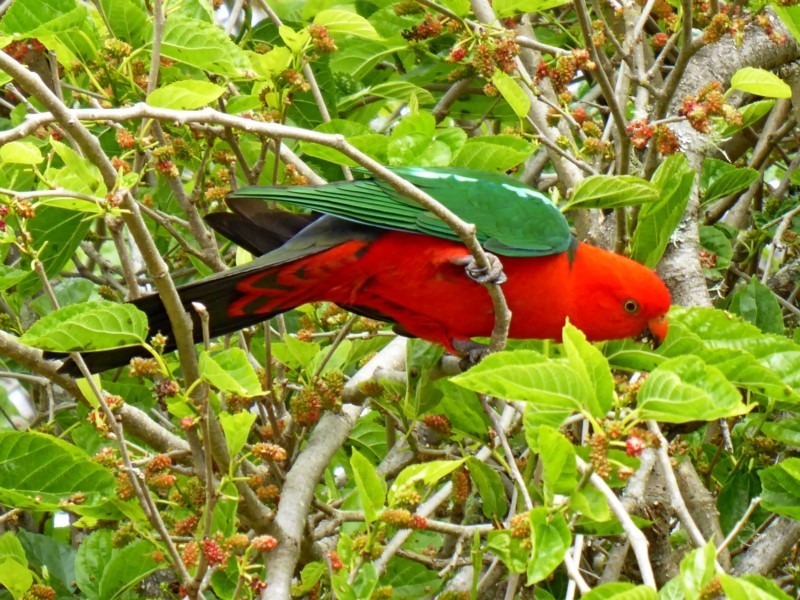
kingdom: Animalia
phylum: Chordata
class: Aves
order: Psittaciformes
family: Psittacidae
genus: Alisterus
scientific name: Alisterus scapularis
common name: Australian king parrot
